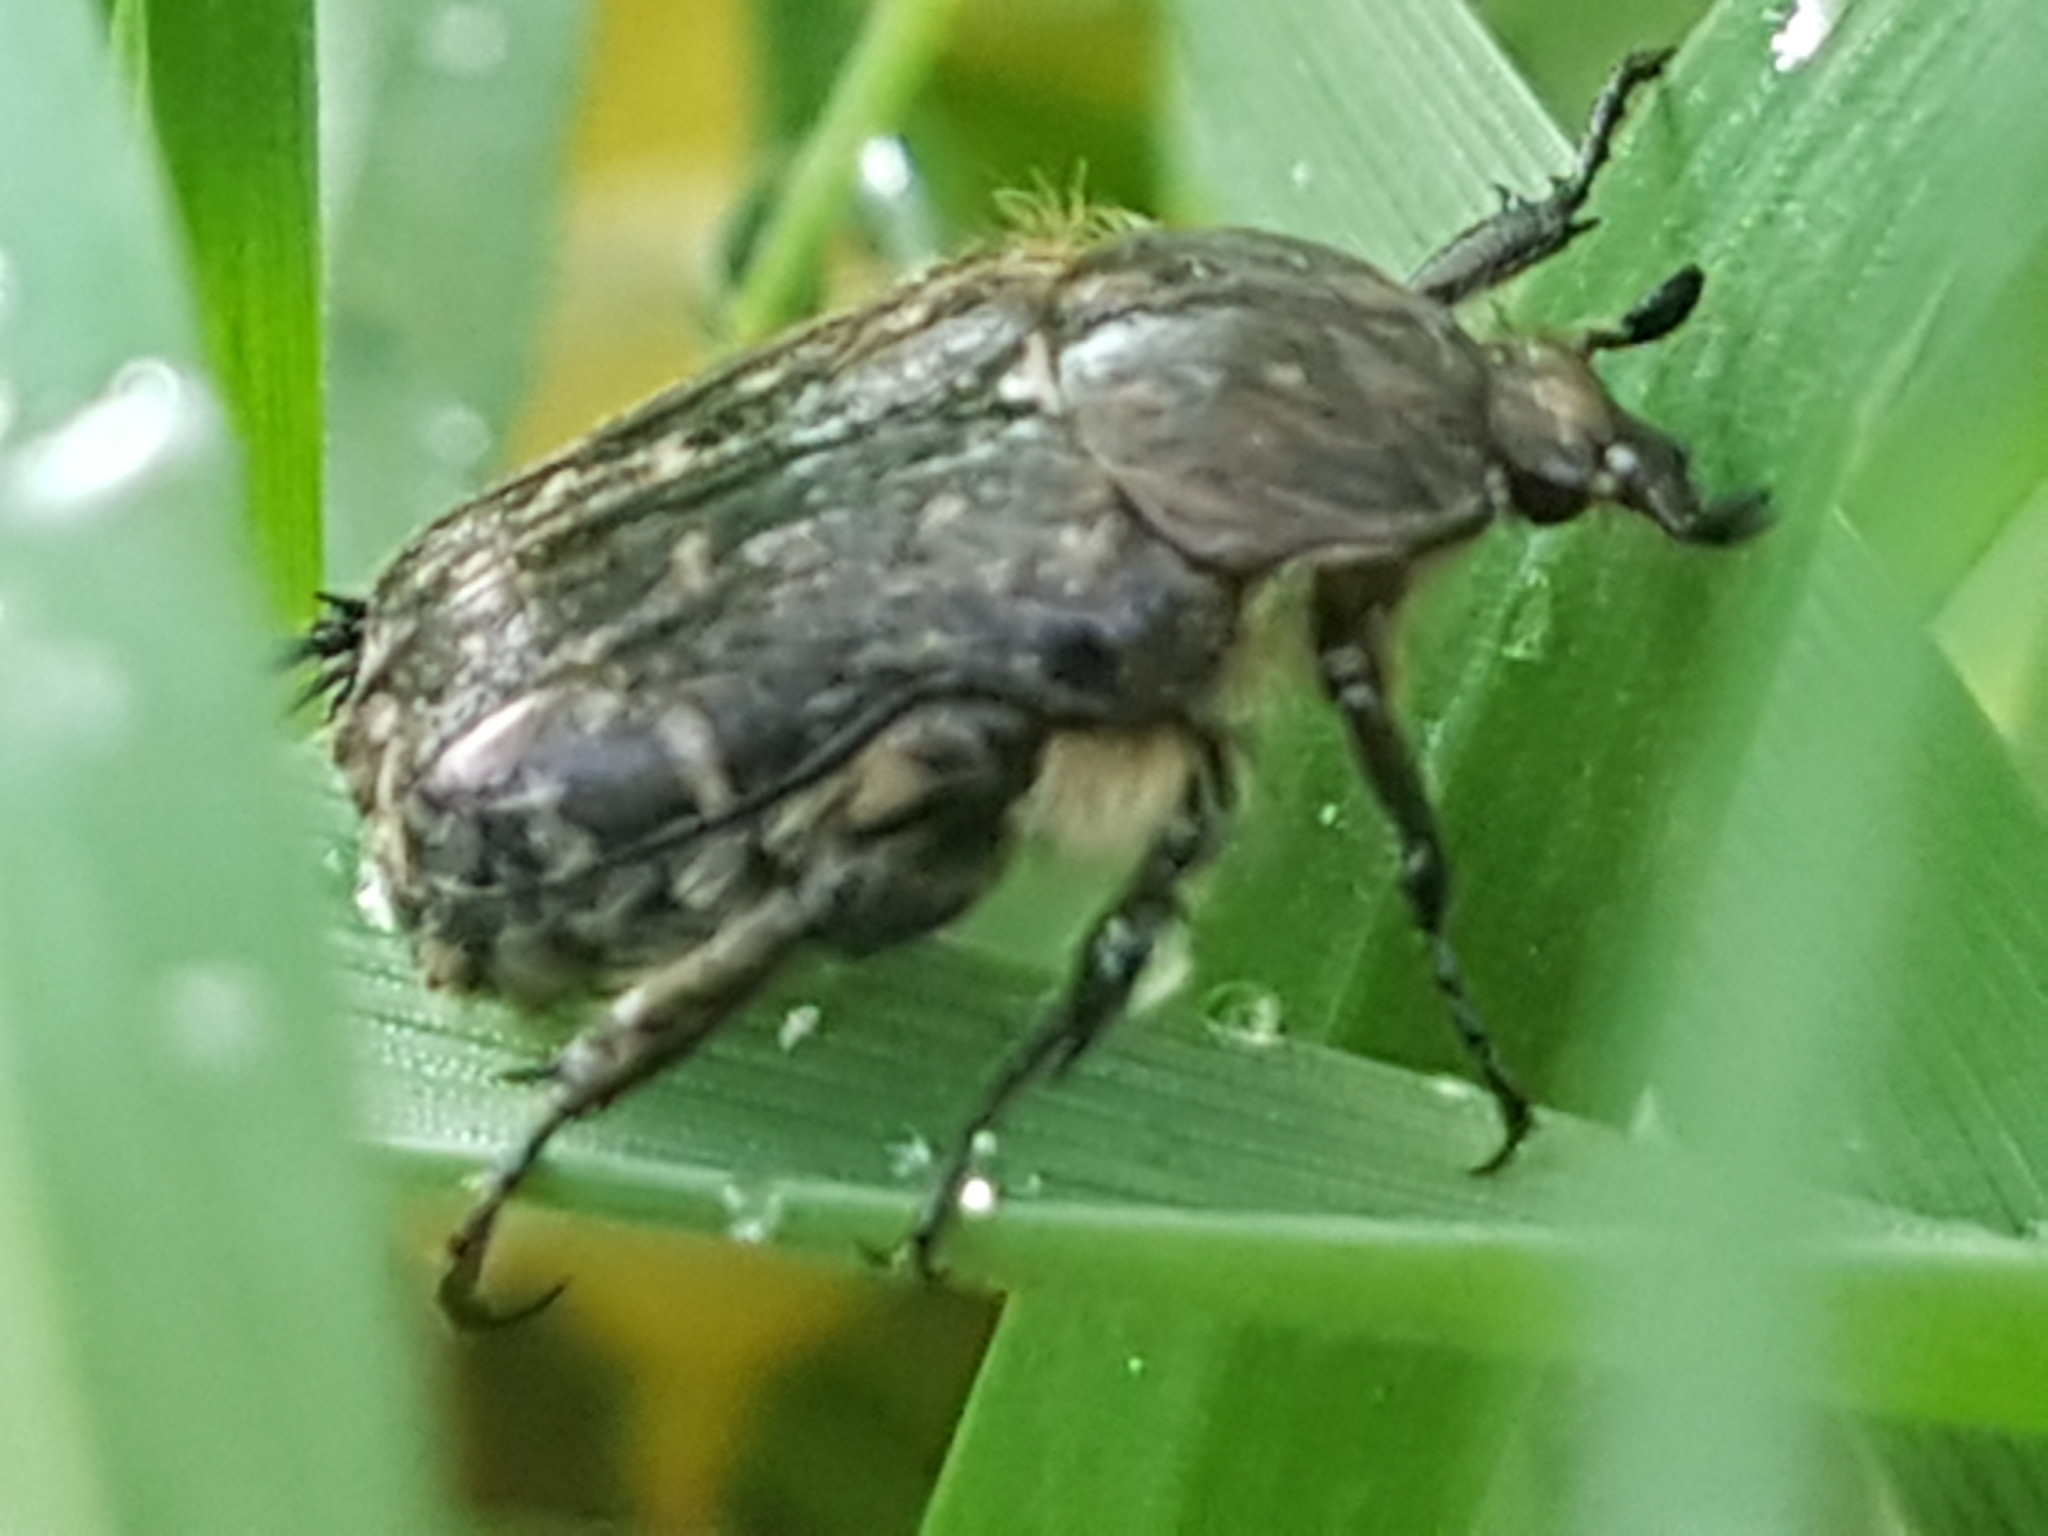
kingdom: Animalia
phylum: Arthropoda
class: Insecta
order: Coleoptera
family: Scarabaeidae
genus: Oxythyrea
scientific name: Oxythyrea funesta
